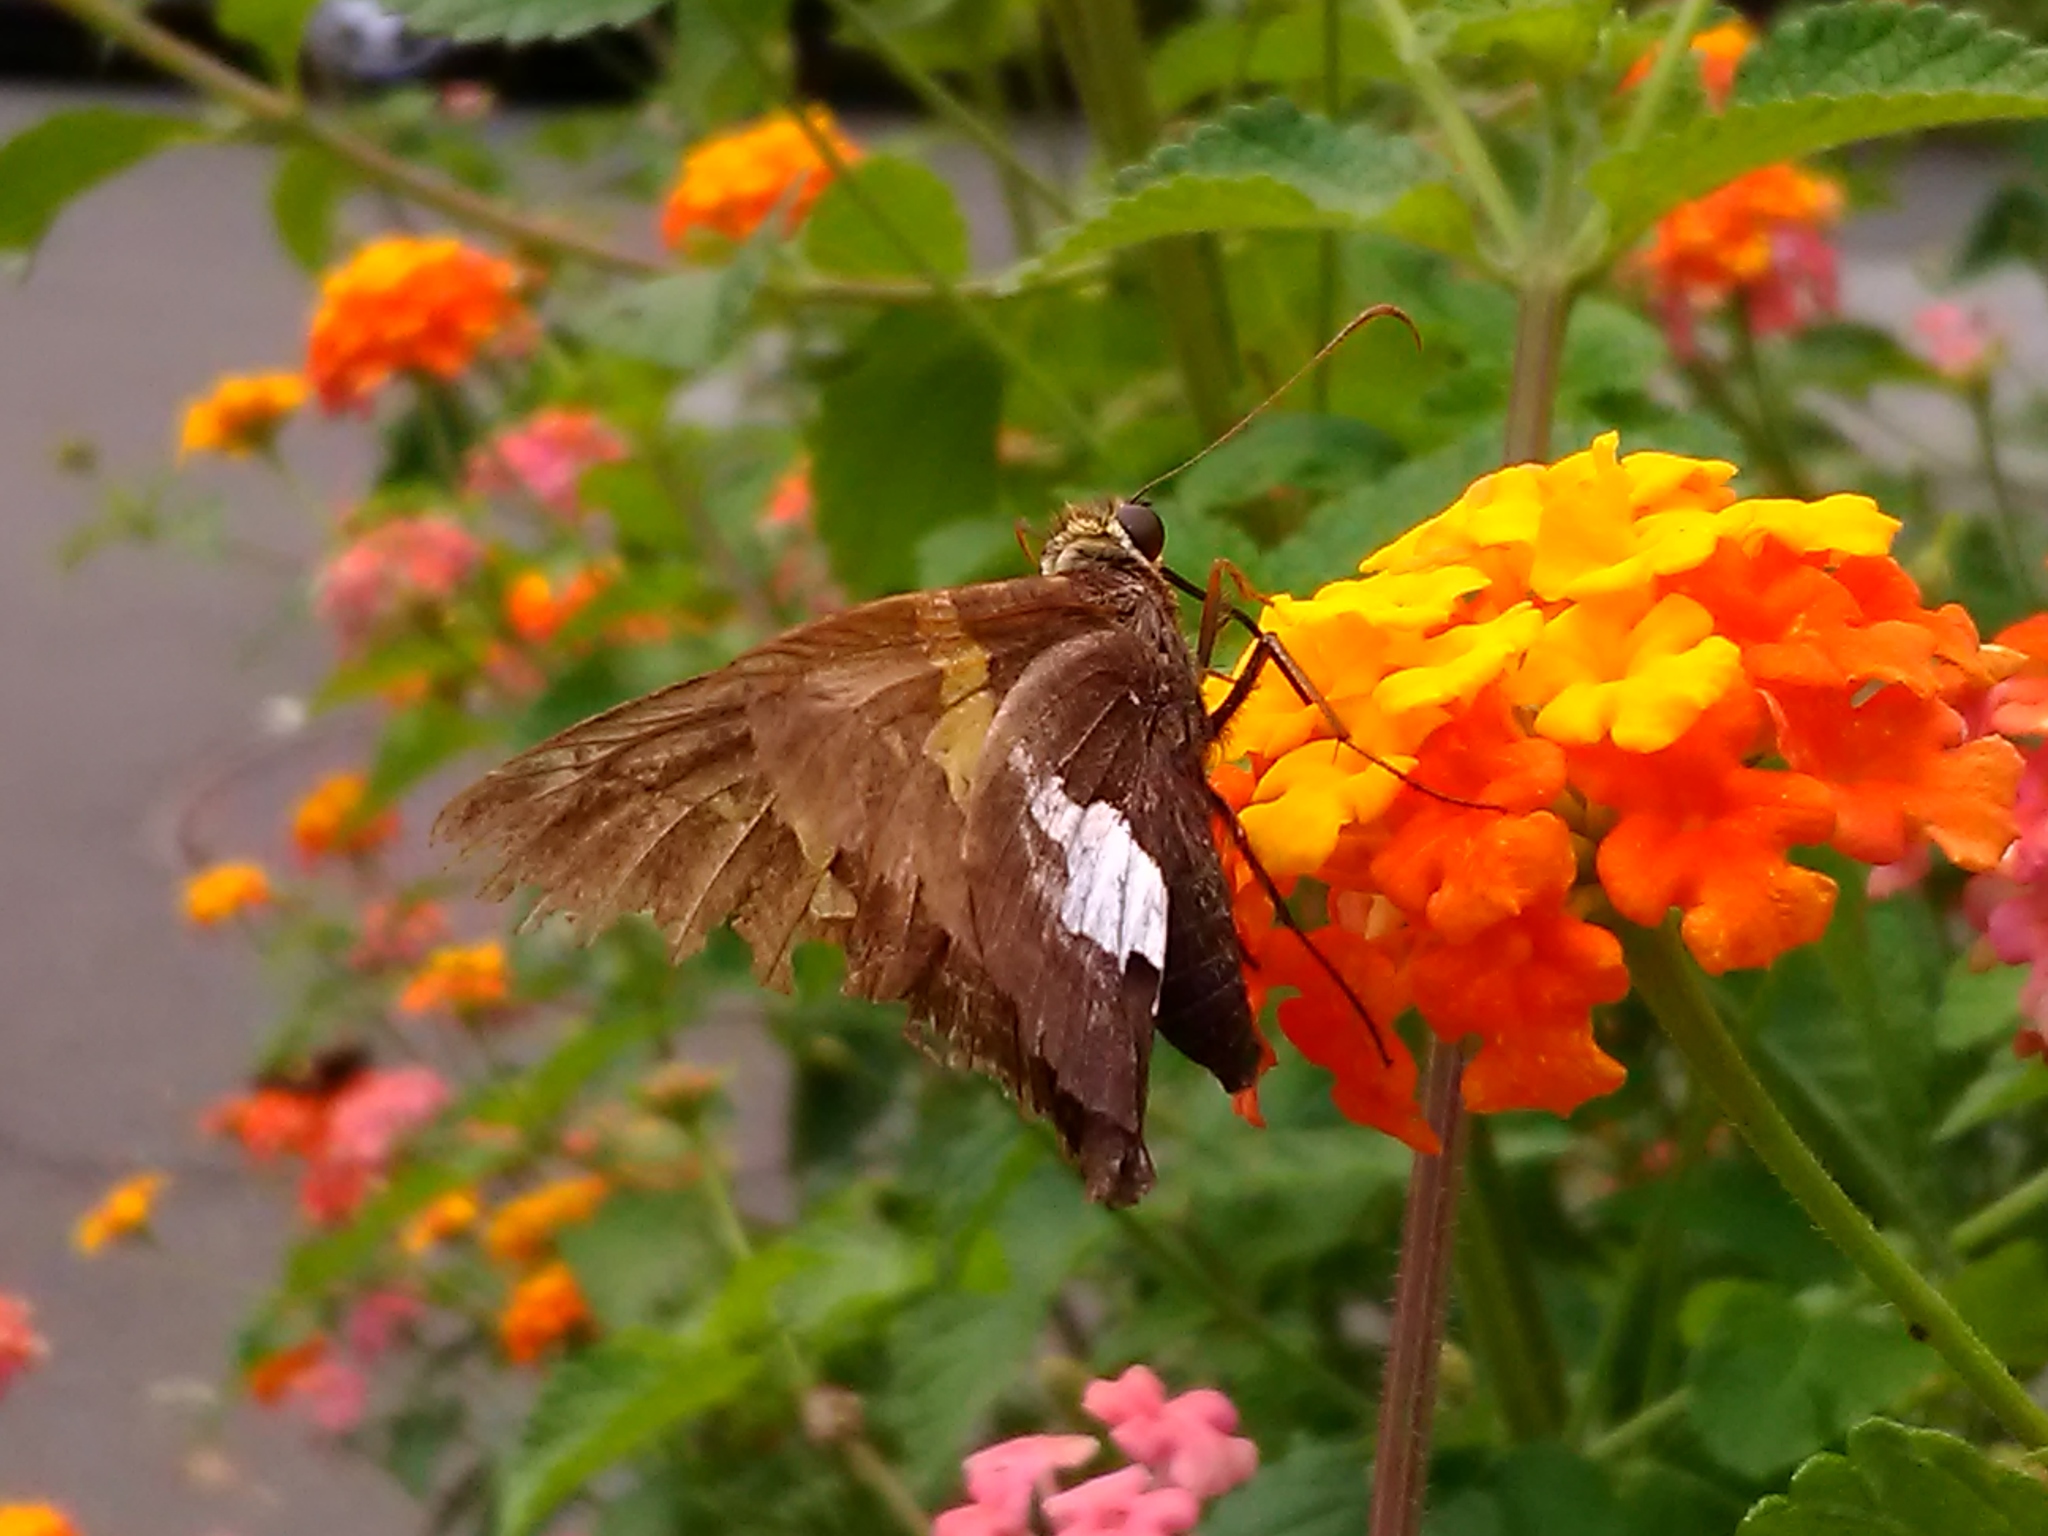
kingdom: Animalia
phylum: Arthropoda
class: Insecta
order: Lepidoptera
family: Hesperiidae
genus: Epargyreus
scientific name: Epargyreus clarus
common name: Silver-spotted skipper
